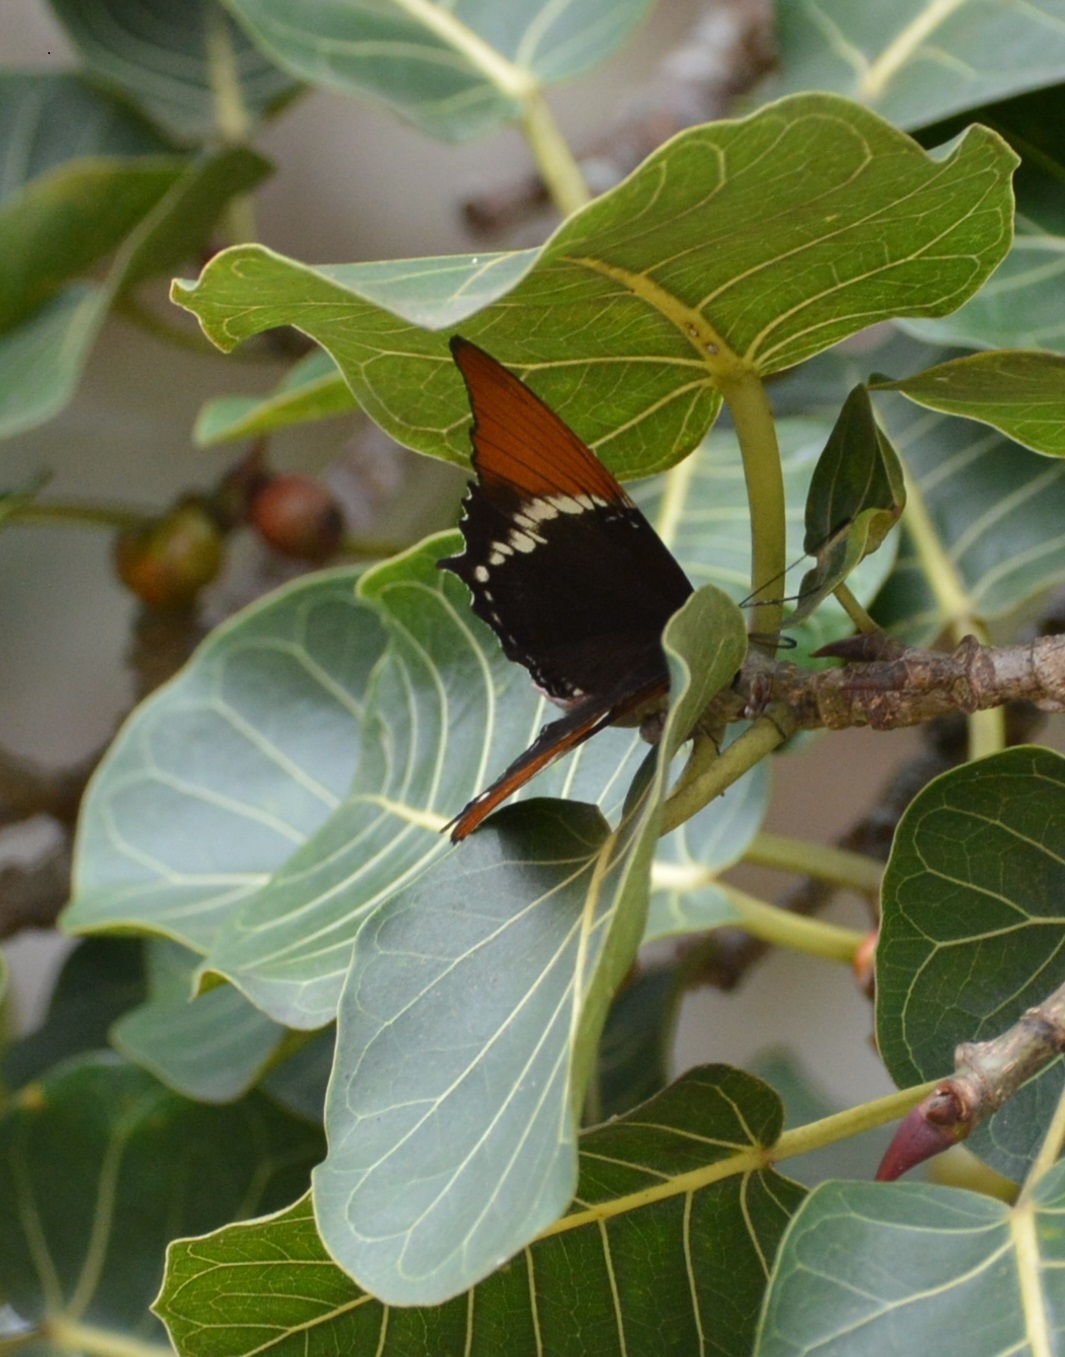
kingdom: Animalia
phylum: Arthropoda
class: Insecta
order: Lepidoptera
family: Nymphalidae
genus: Siproeta
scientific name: Siproeta epaphus
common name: Rusty-tipped page
